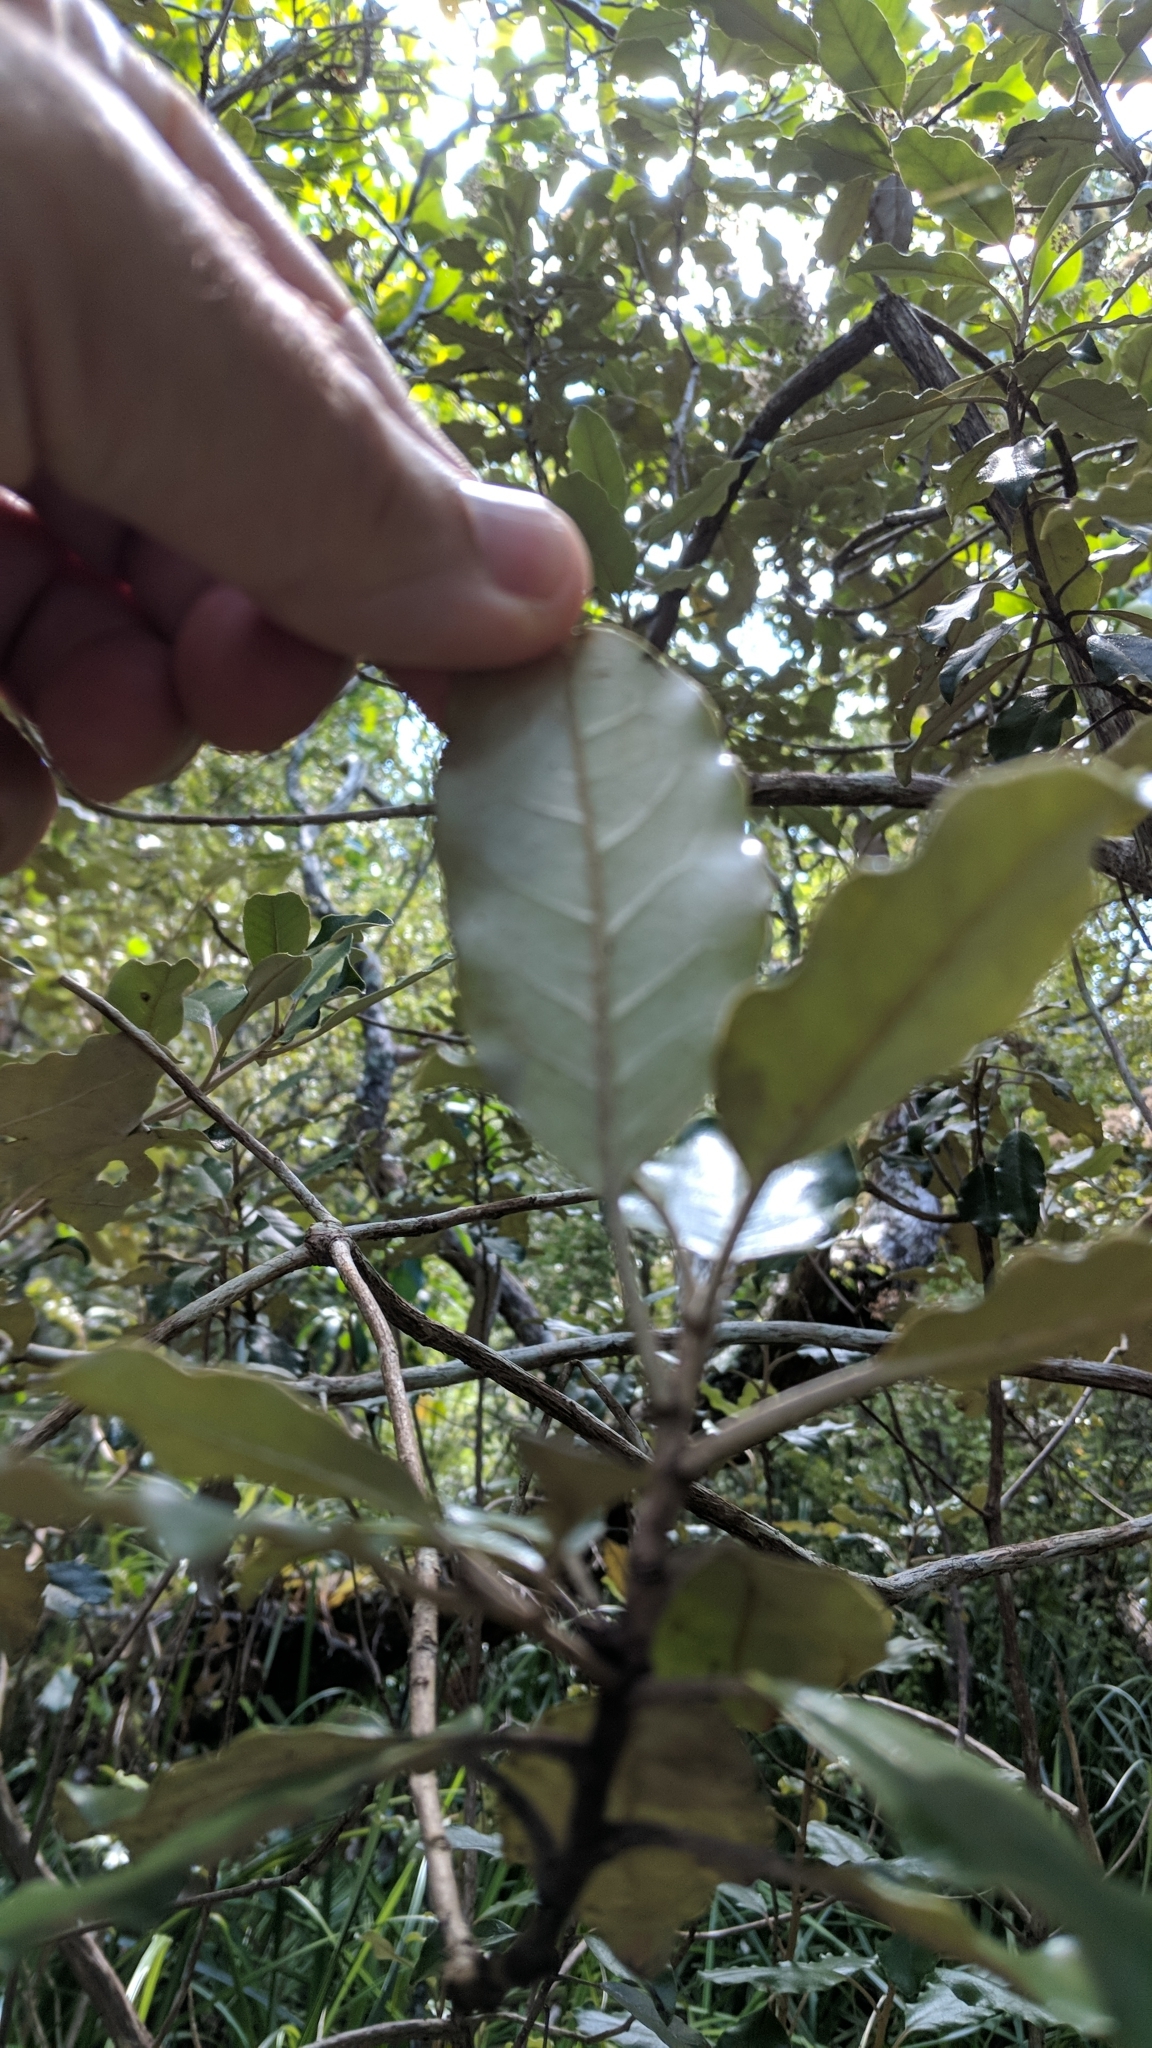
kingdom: Plantae
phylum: Tracheophyta
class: Magnoliopsida
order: Asterales
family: Asteraceae
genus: Olearia
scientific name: Olearia albida
